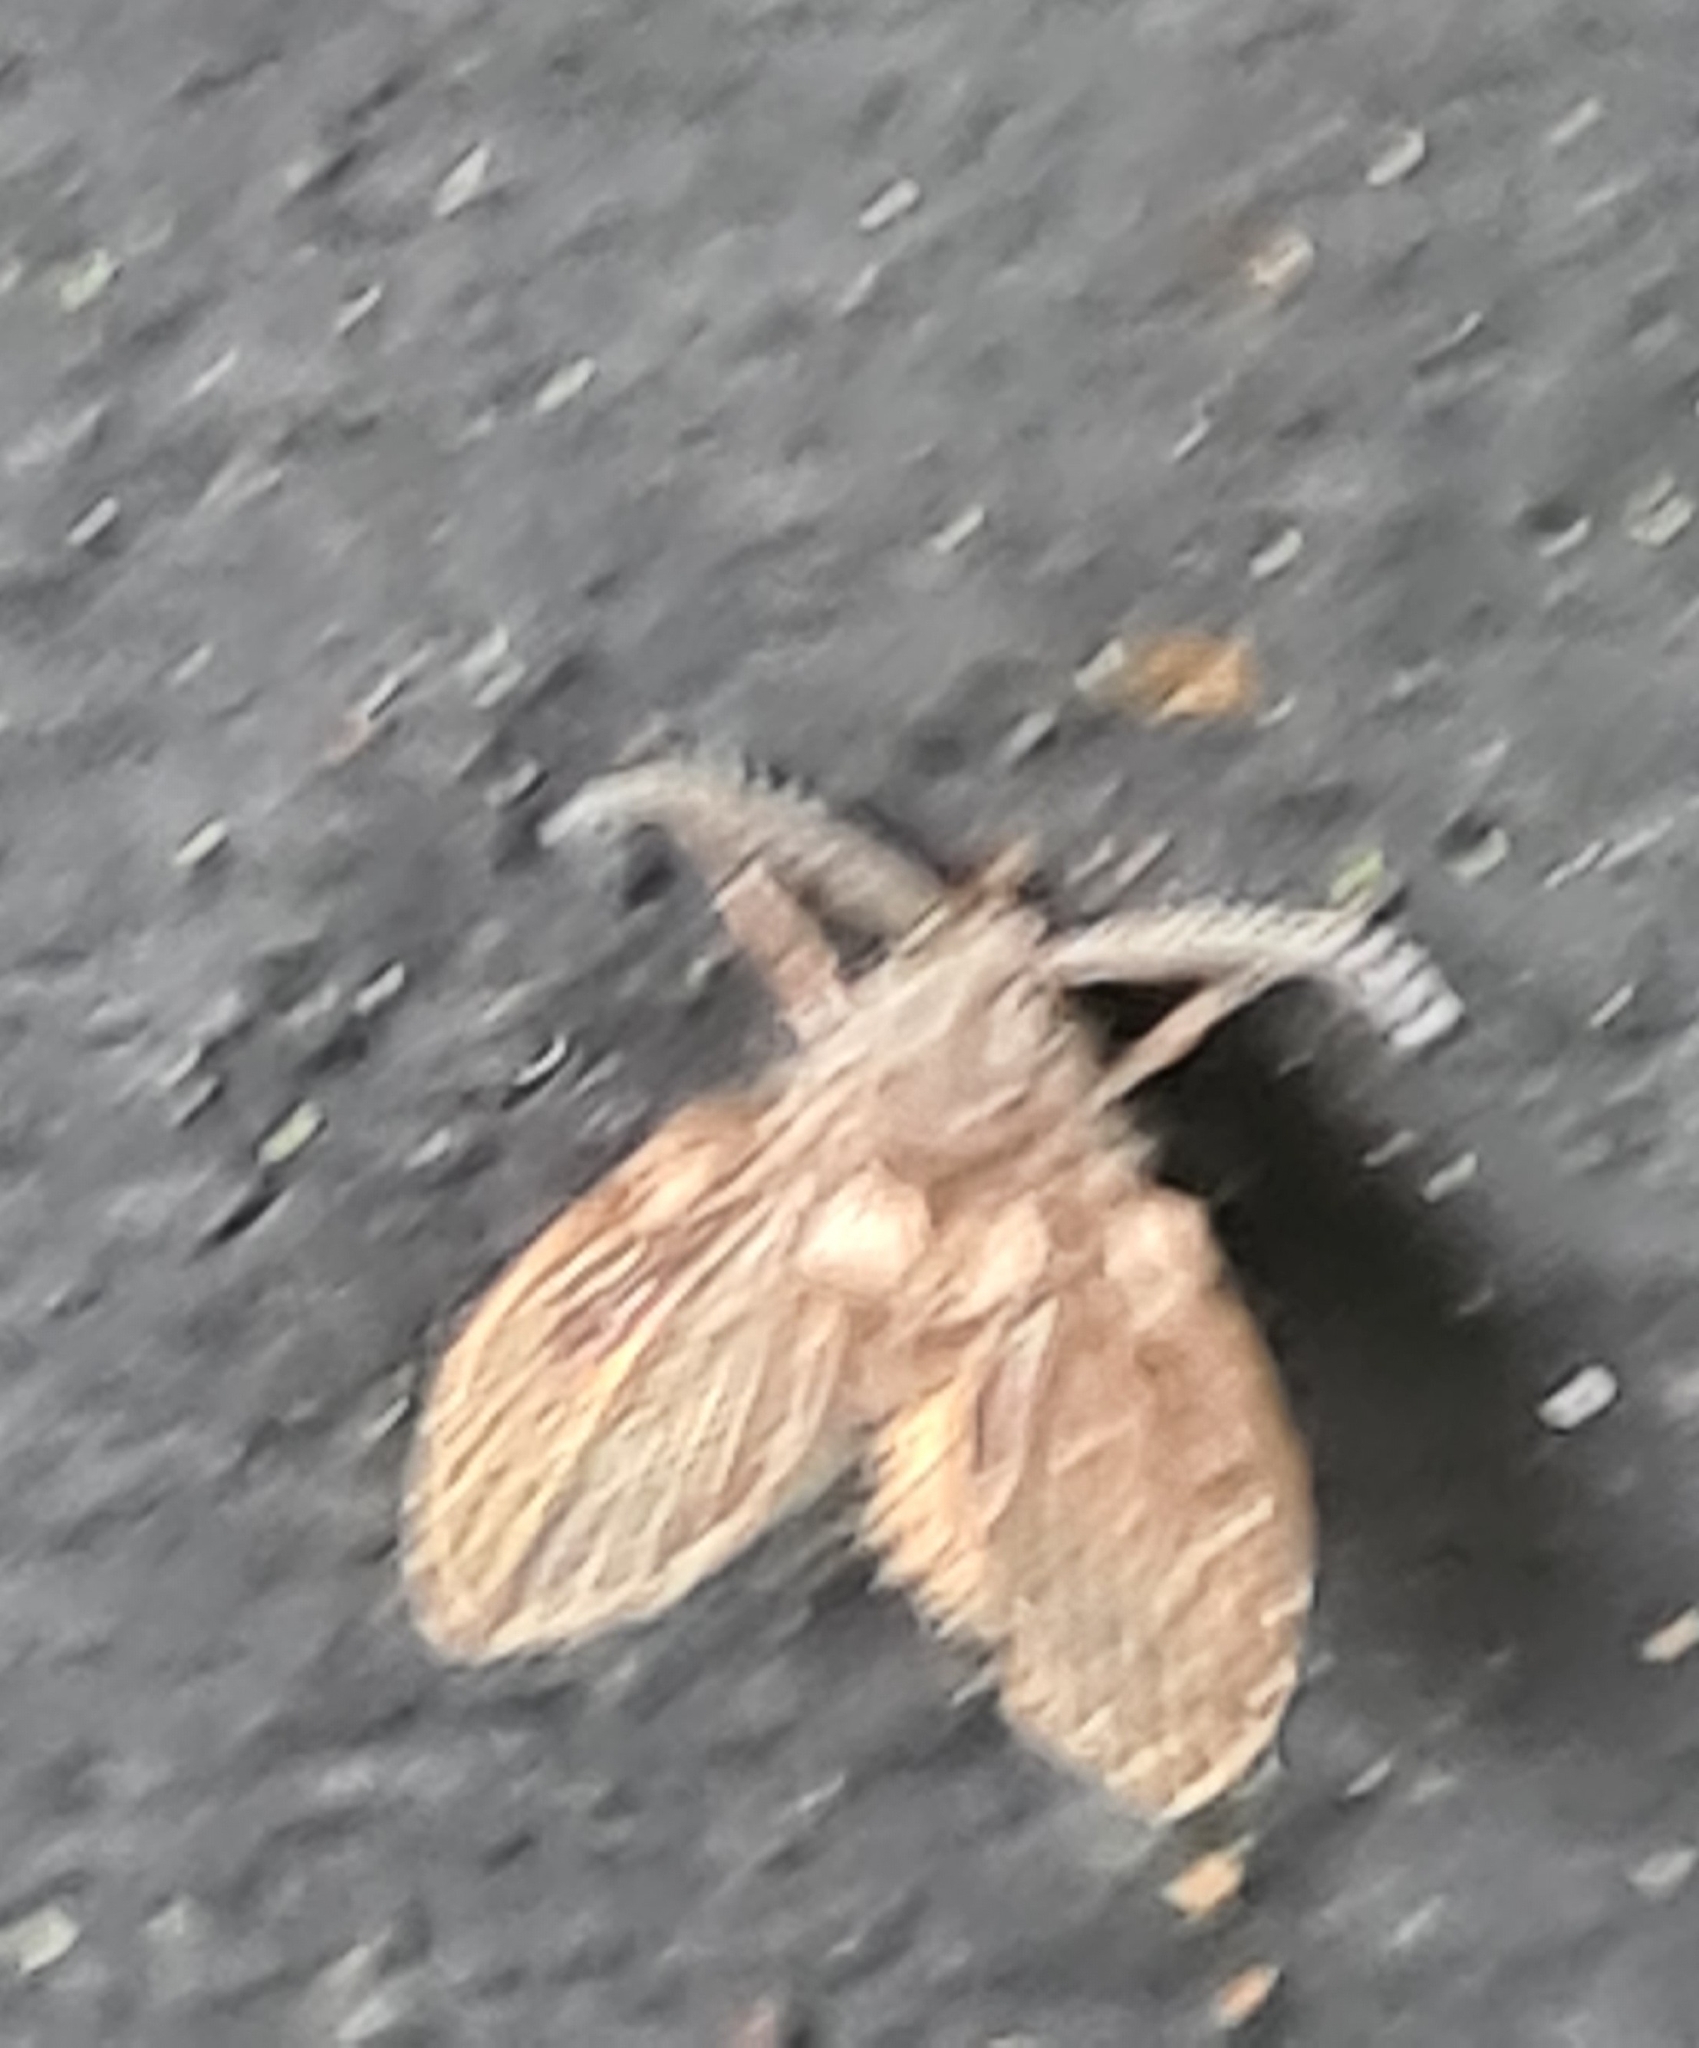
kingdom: Animalia
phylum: Arthropoda
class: Insecta
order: Diptera
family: Psychodidae
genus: Clogmia
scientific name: Clogmia albipunctatus
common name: White-spotted moth fly
